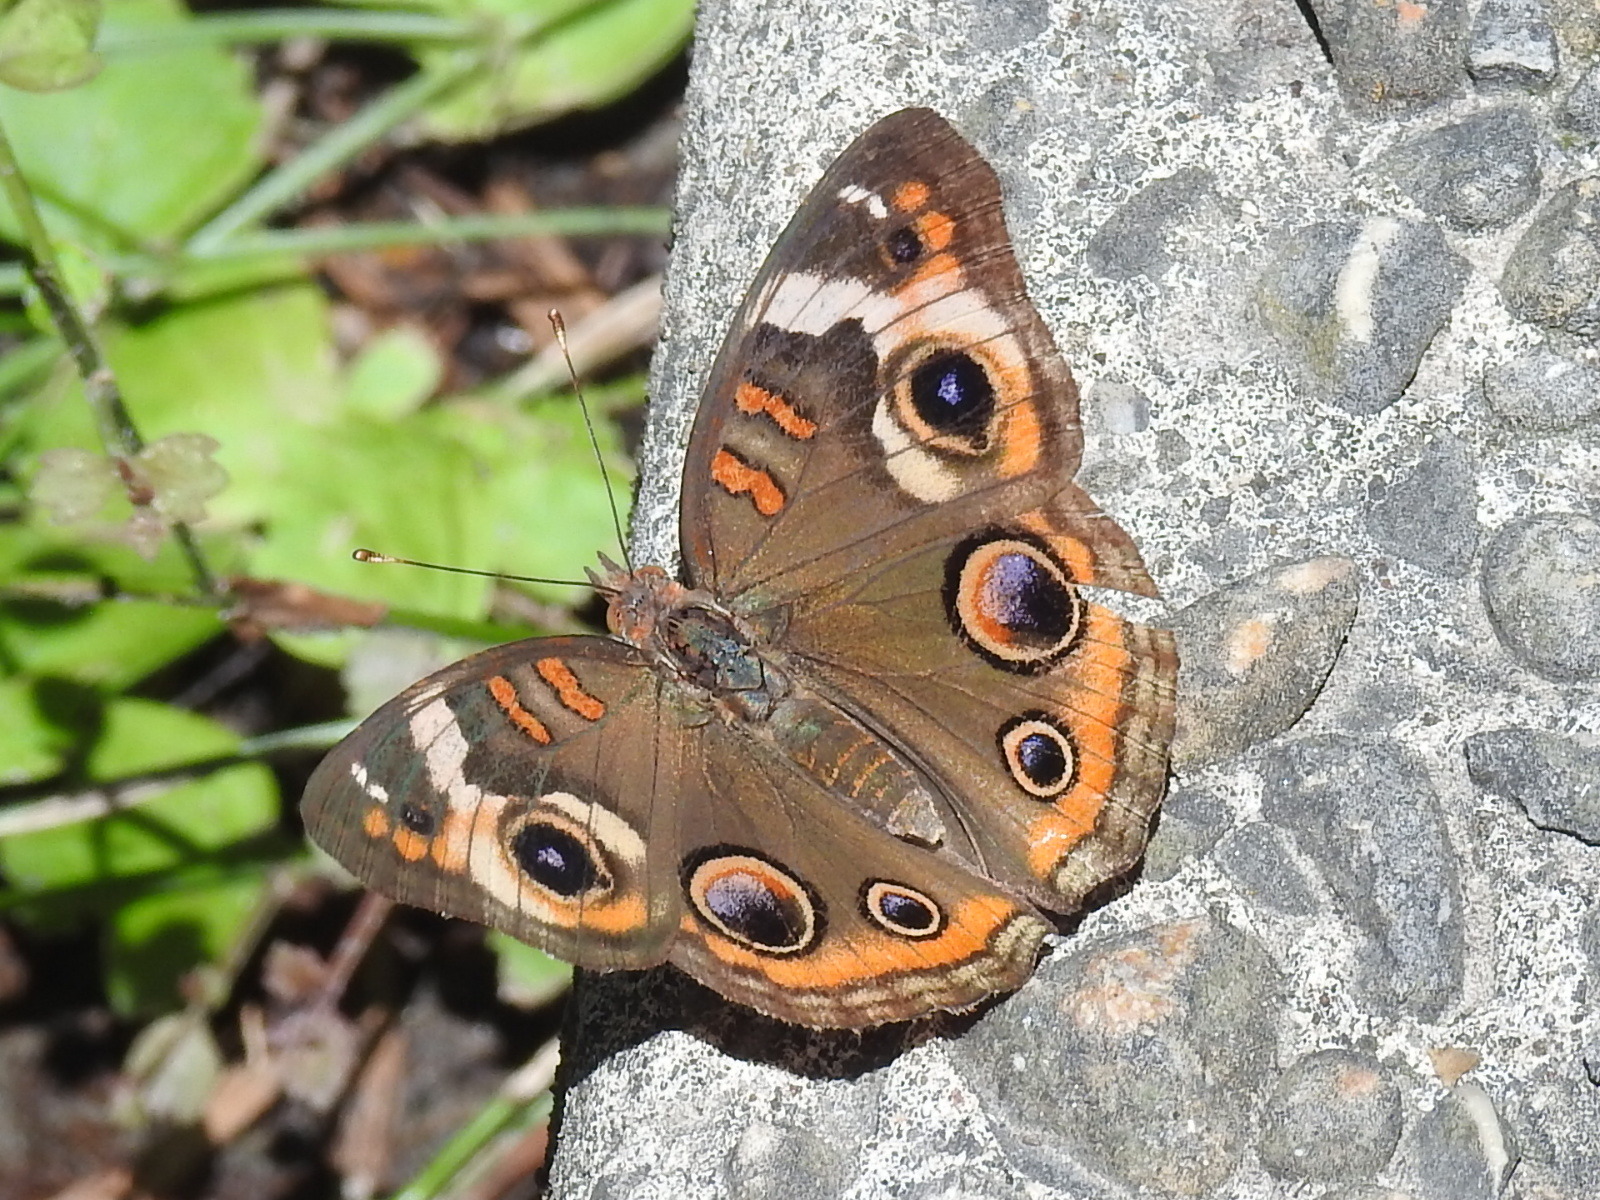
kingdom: Animalia
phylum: Arthropoda
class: Insecta
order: Lepidoptera
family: Nymphalidae
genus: Junonia
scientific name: Junonia coenia
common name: Common buckeye
